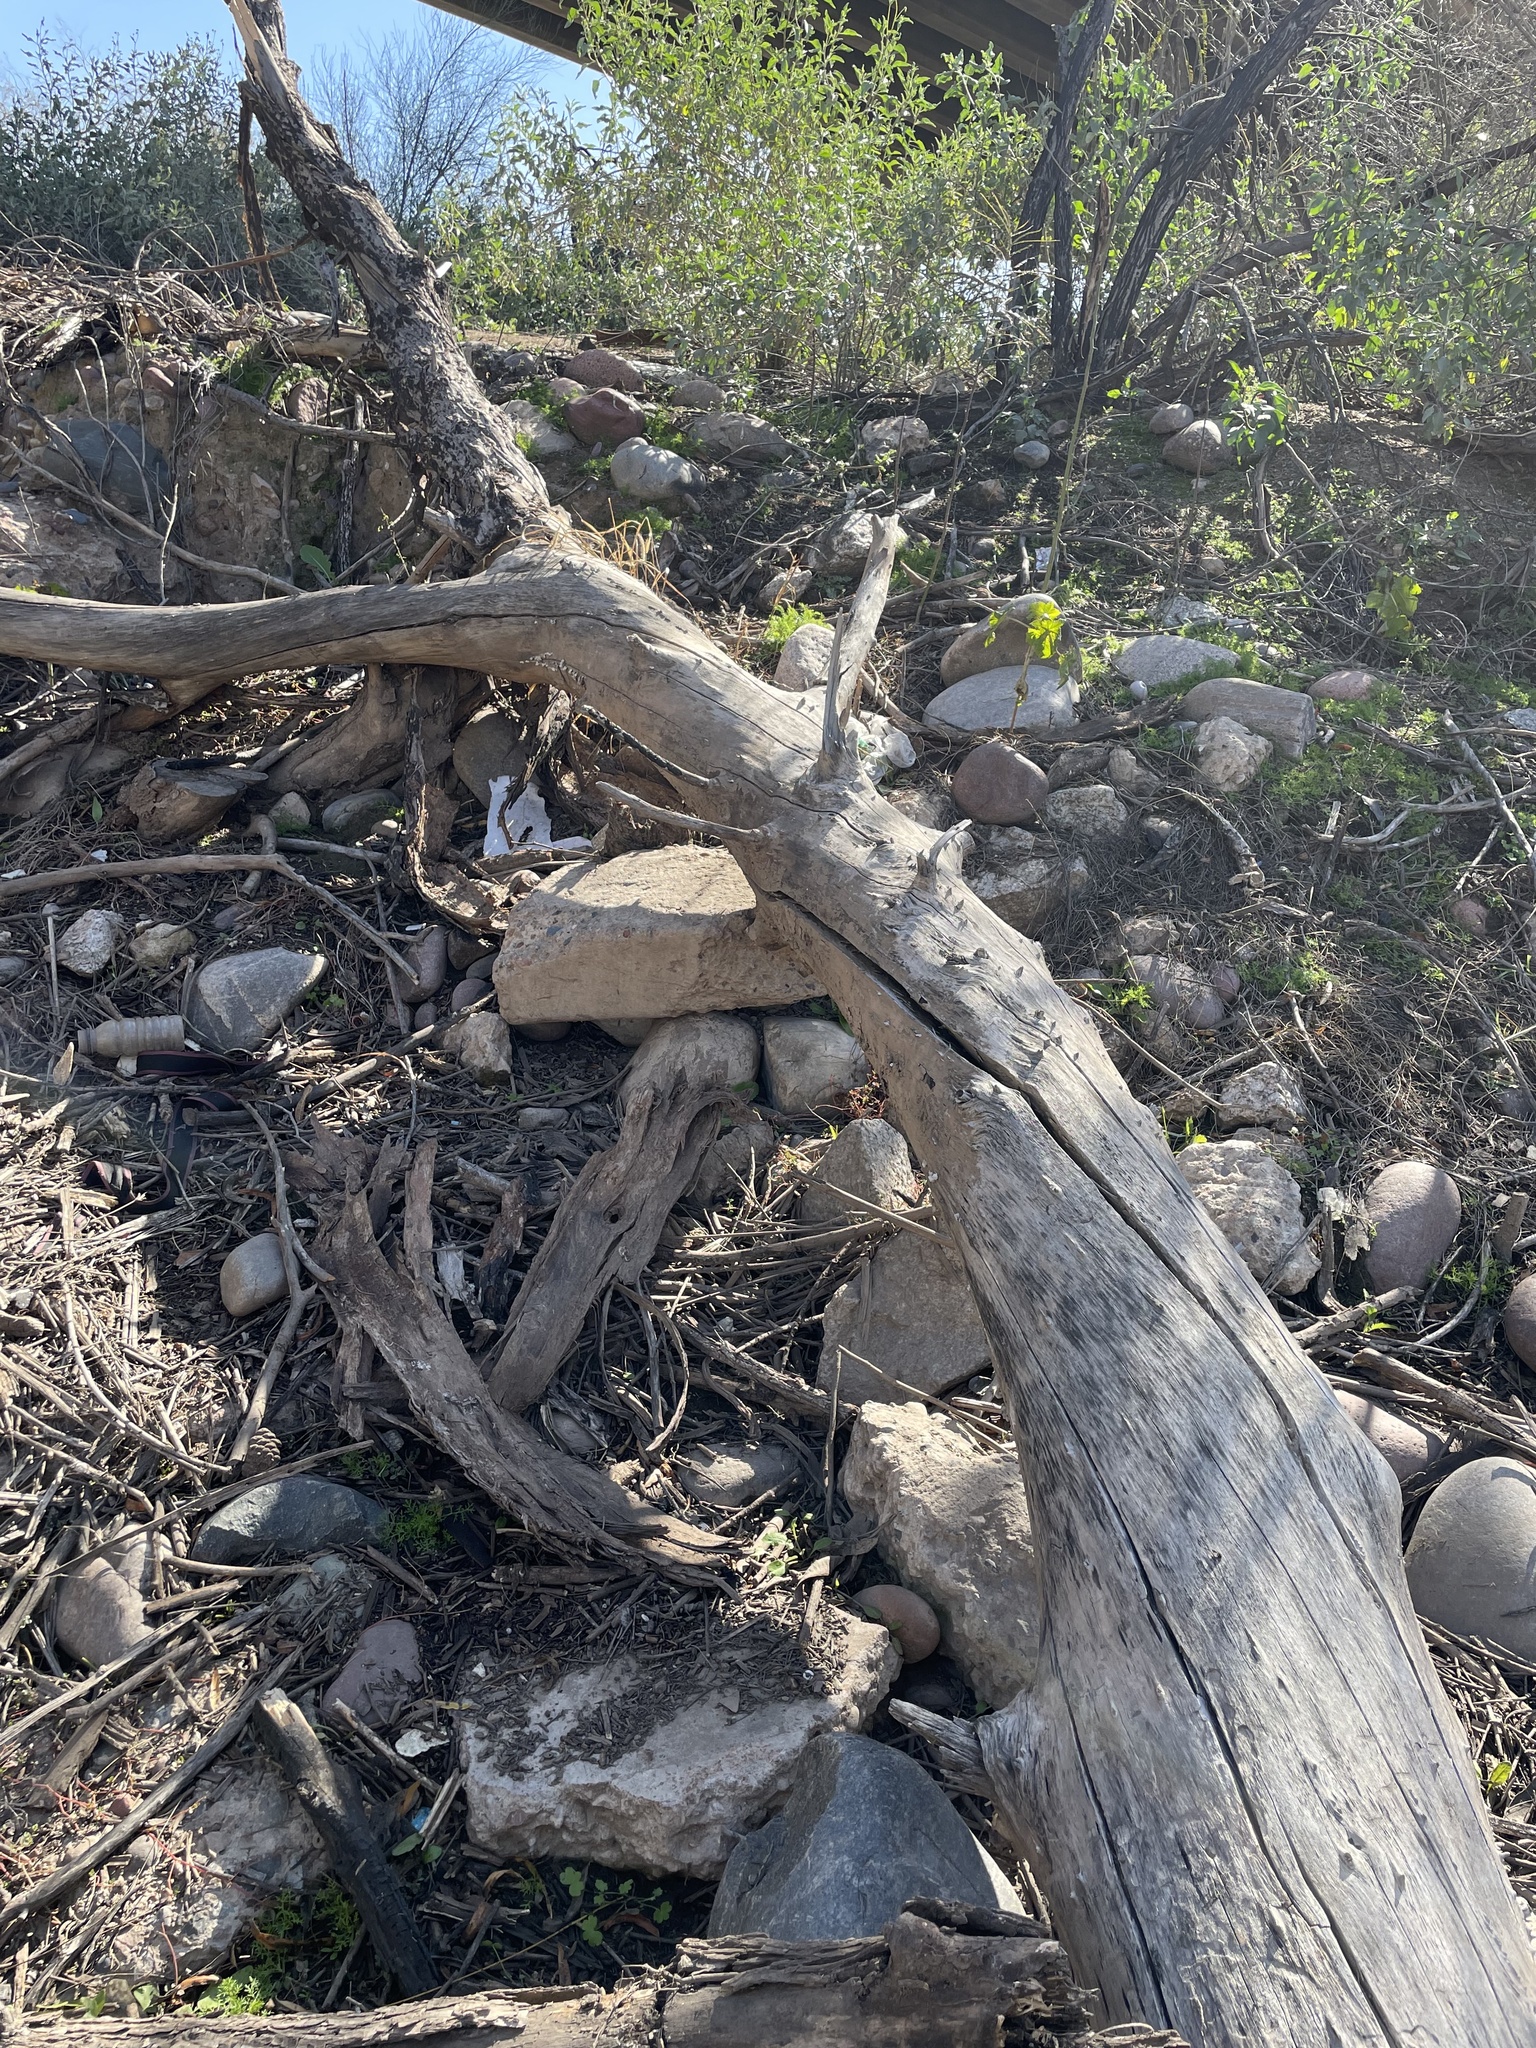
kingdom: Fungi
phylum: Basidiomycota
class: Agaricomycetes
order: Agaricales
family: Schizophyllaceae
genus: Schizophyllum
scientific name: Schizophyllum commune
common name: Common porecrust
